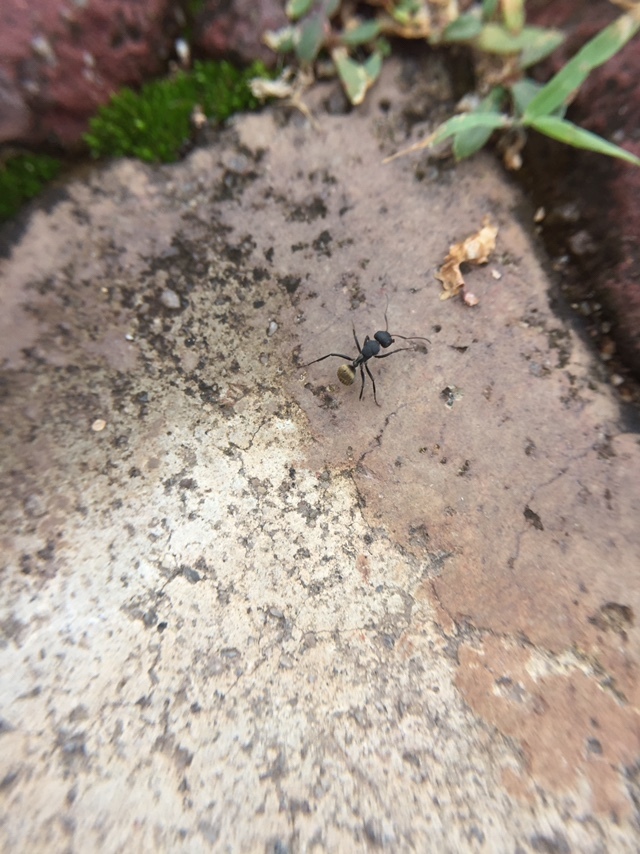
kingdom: Animalia
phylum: Arthropoda
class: Insecta
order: Hymenoptera
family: Formicidae
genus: Camponotus
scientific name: Camponotus sericeus
